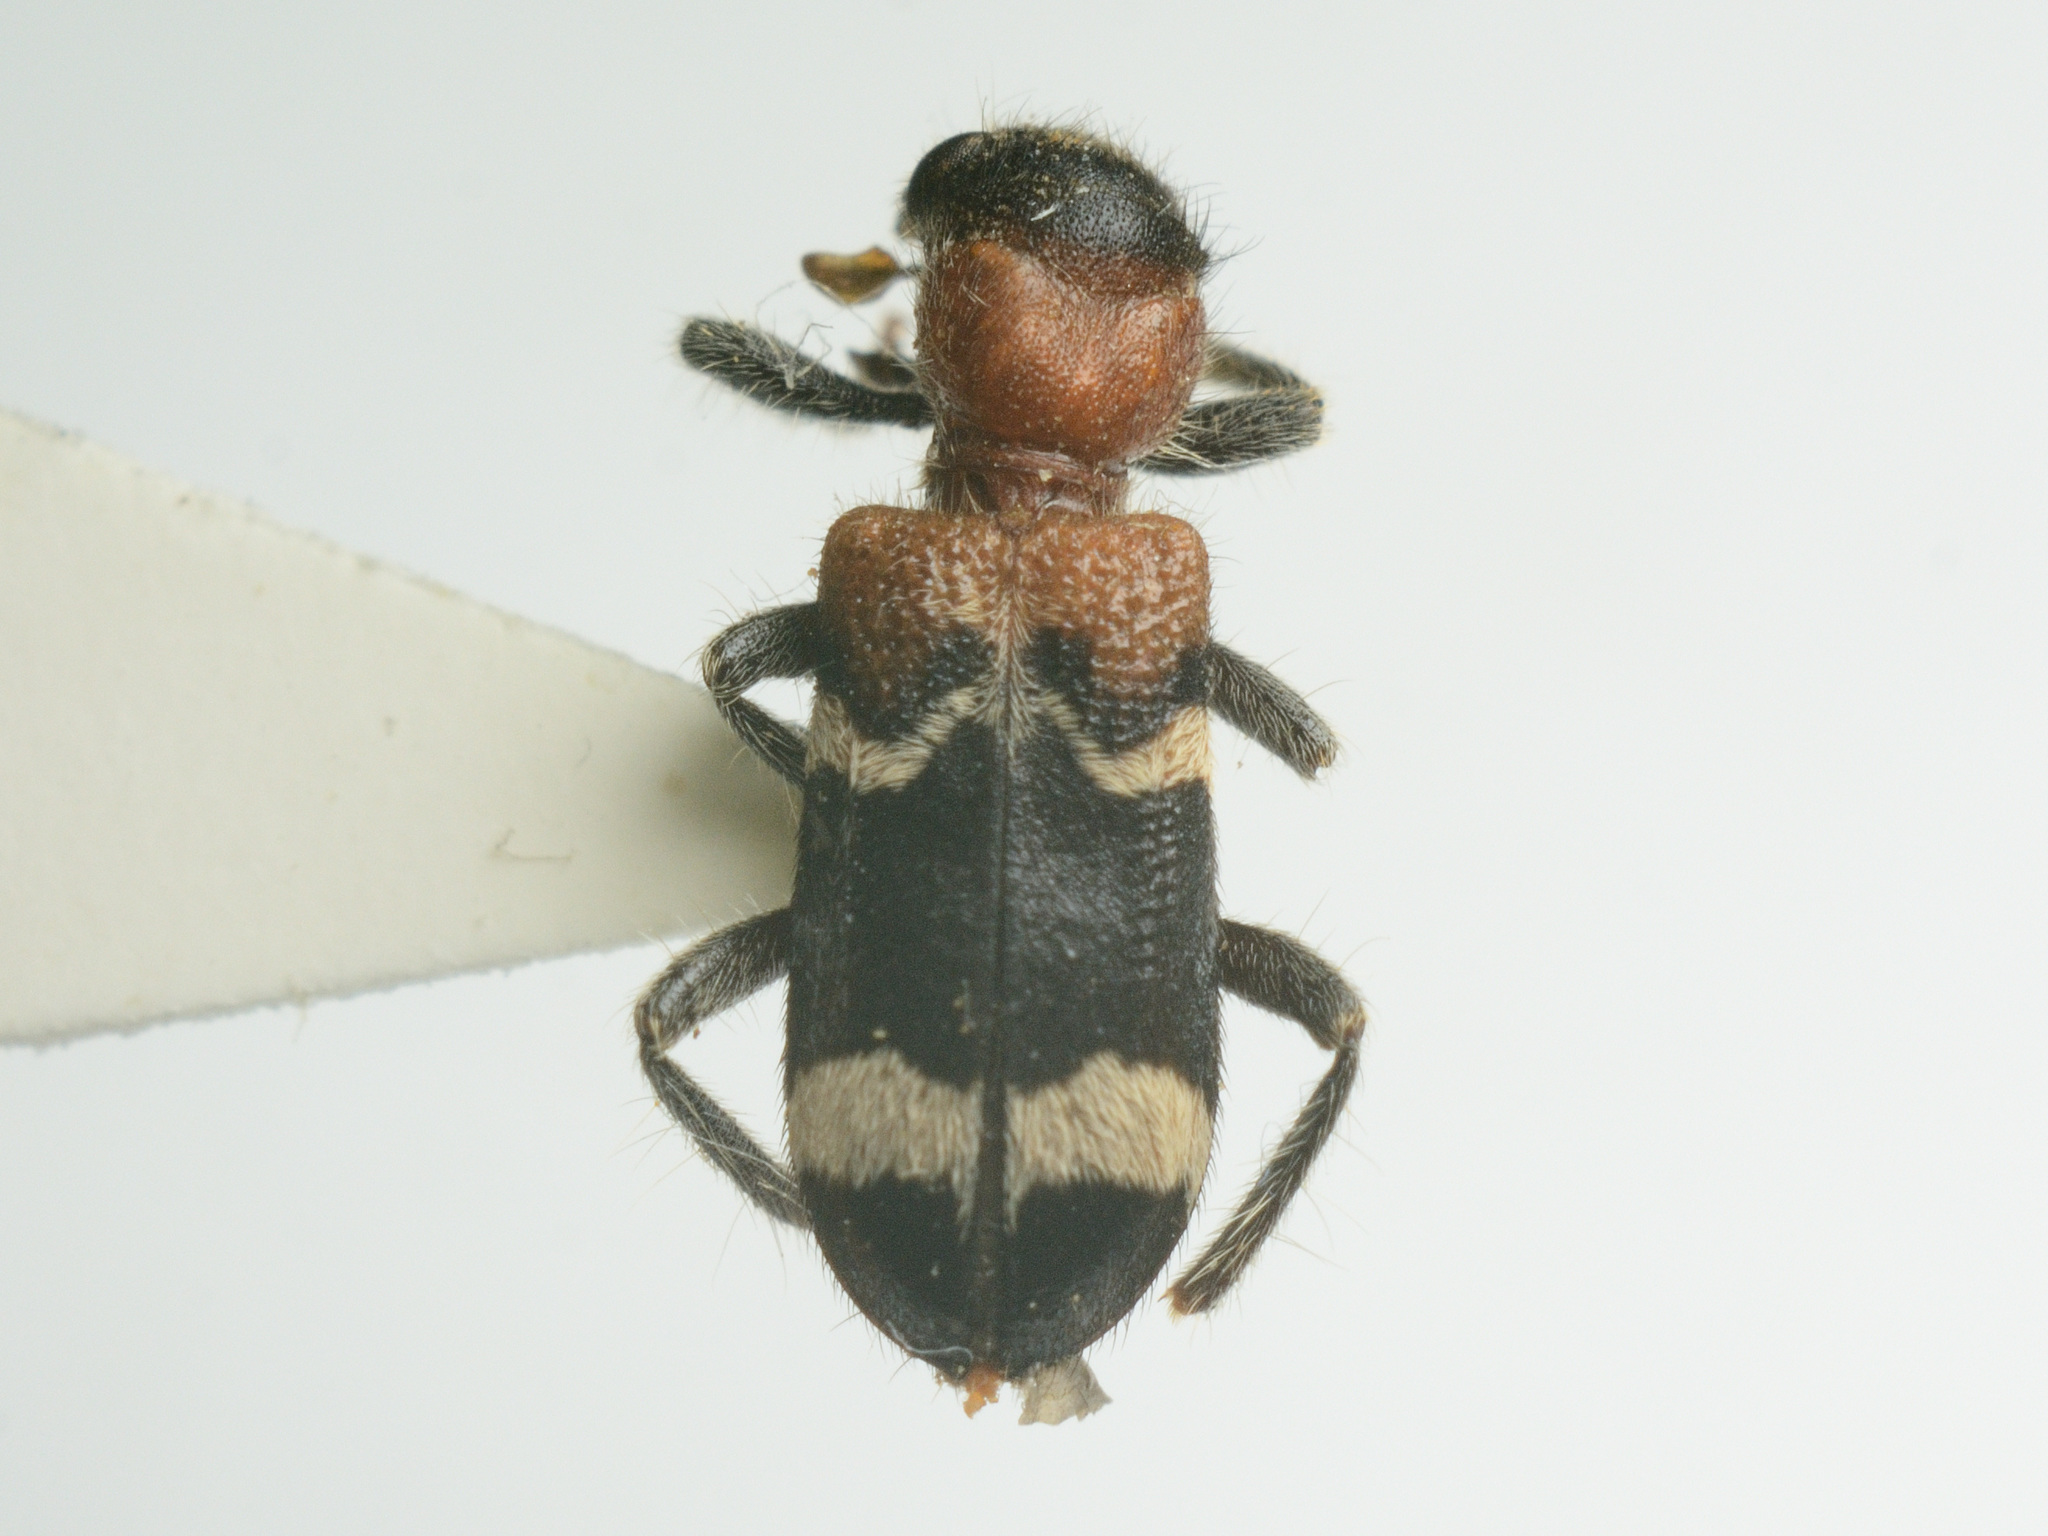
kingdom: Animalia
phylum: Arthropoda
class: Insecta
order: Coleoptera
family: Cleridae
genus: Thanasimus
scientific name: Thanasimus formicarius
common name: Ant beetle
